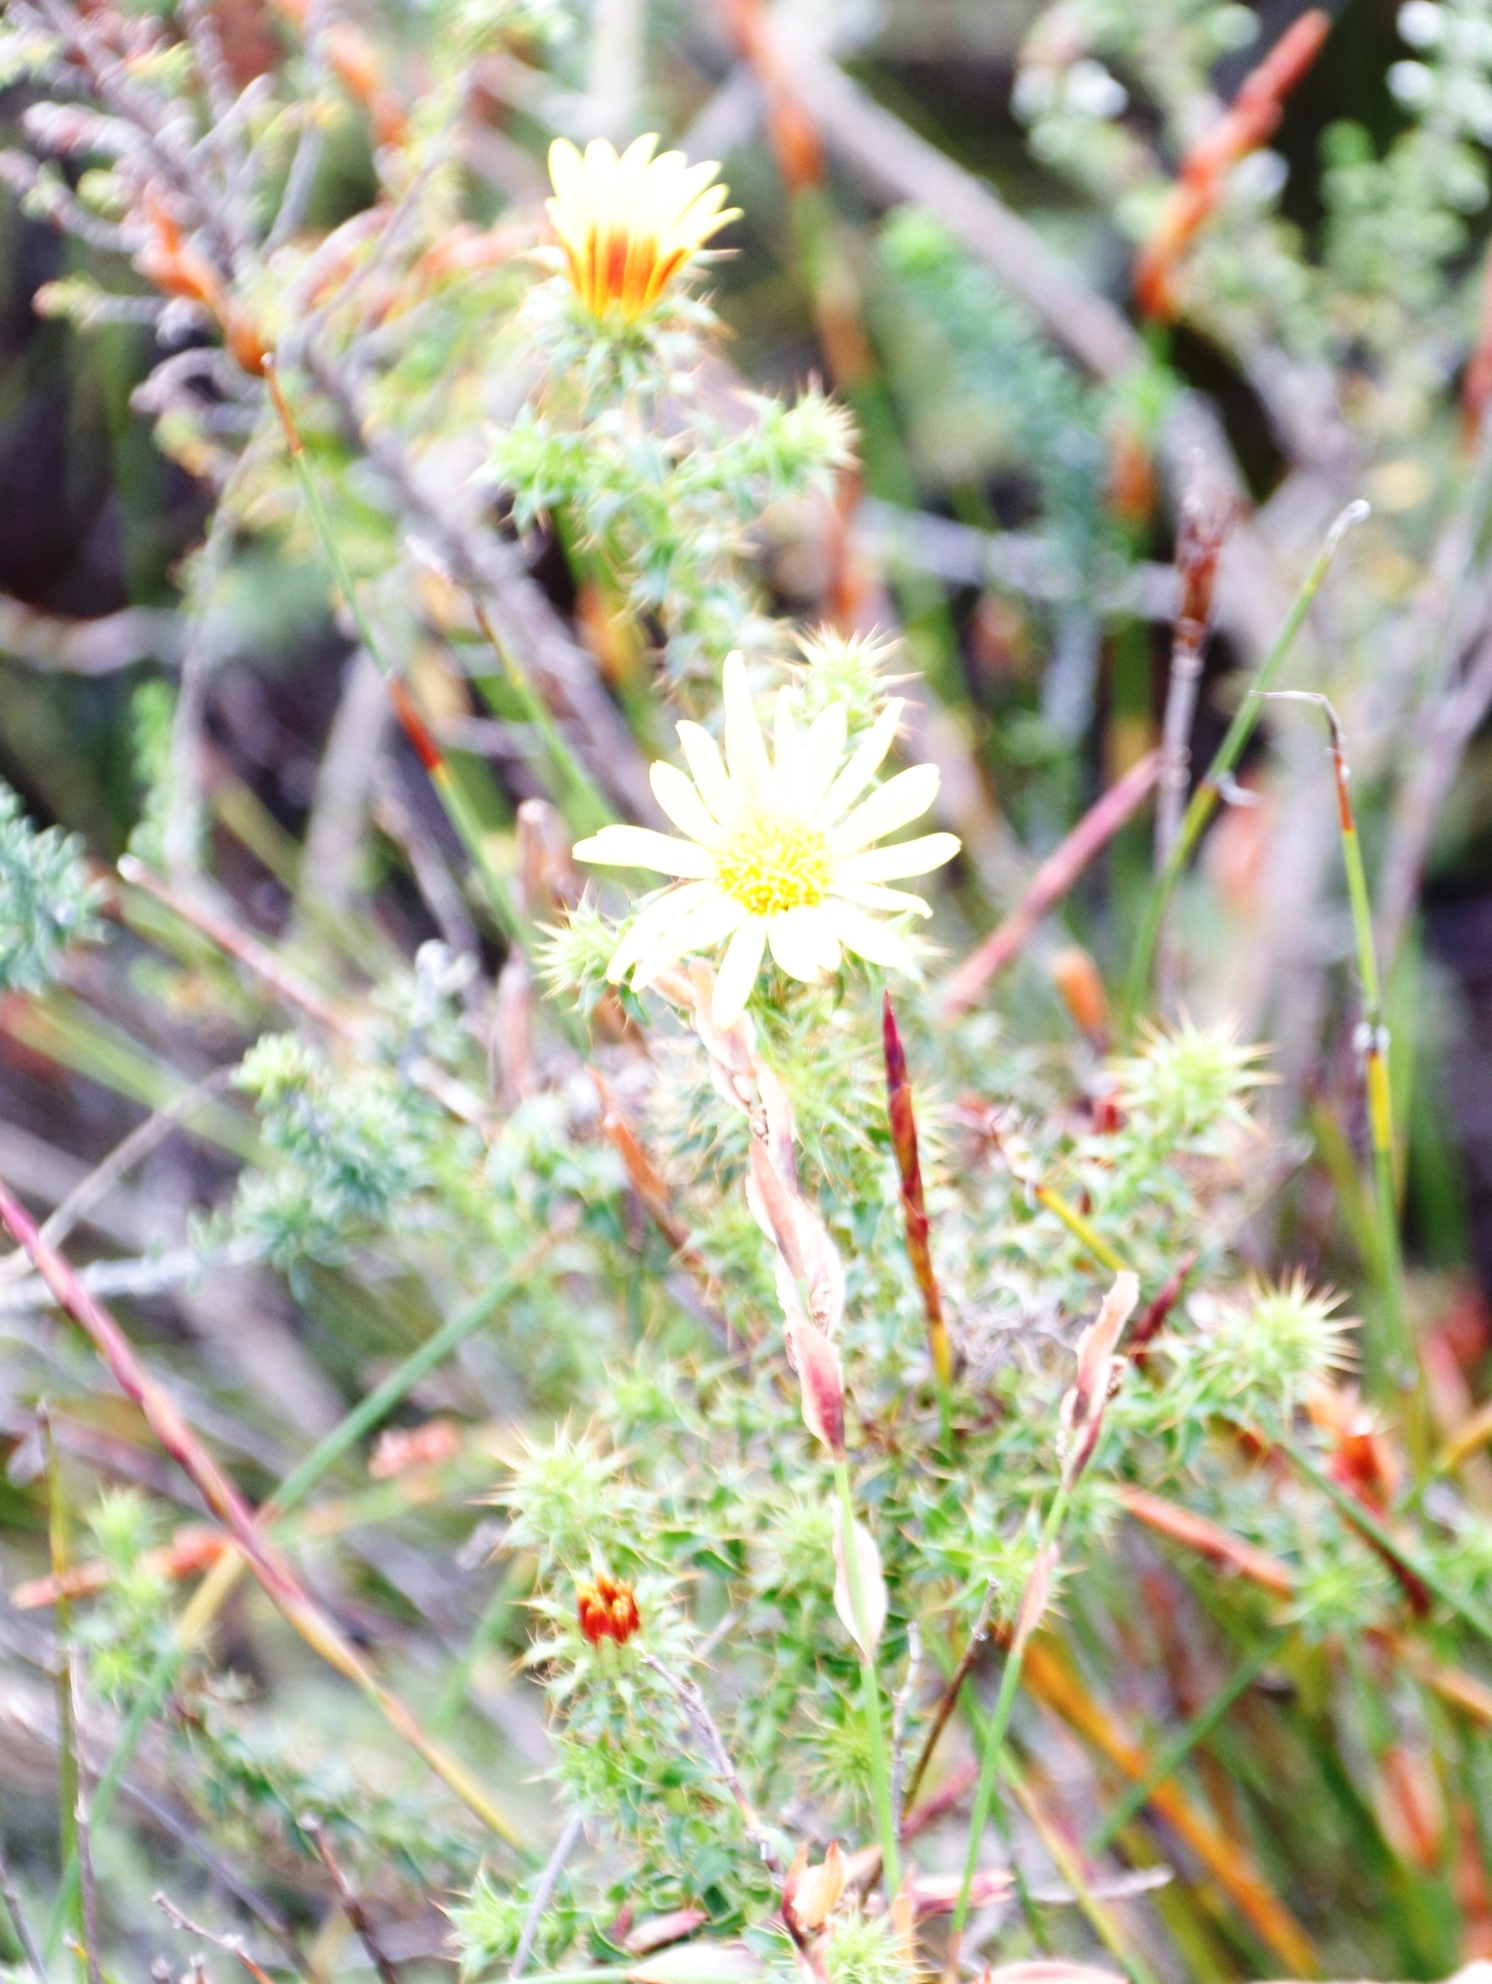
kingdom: Plantae
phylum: Tracheophyta
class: Magnoliopsida
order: Asterales
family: Asteraceae
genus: Cullumia
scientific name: Cullumia setosa
